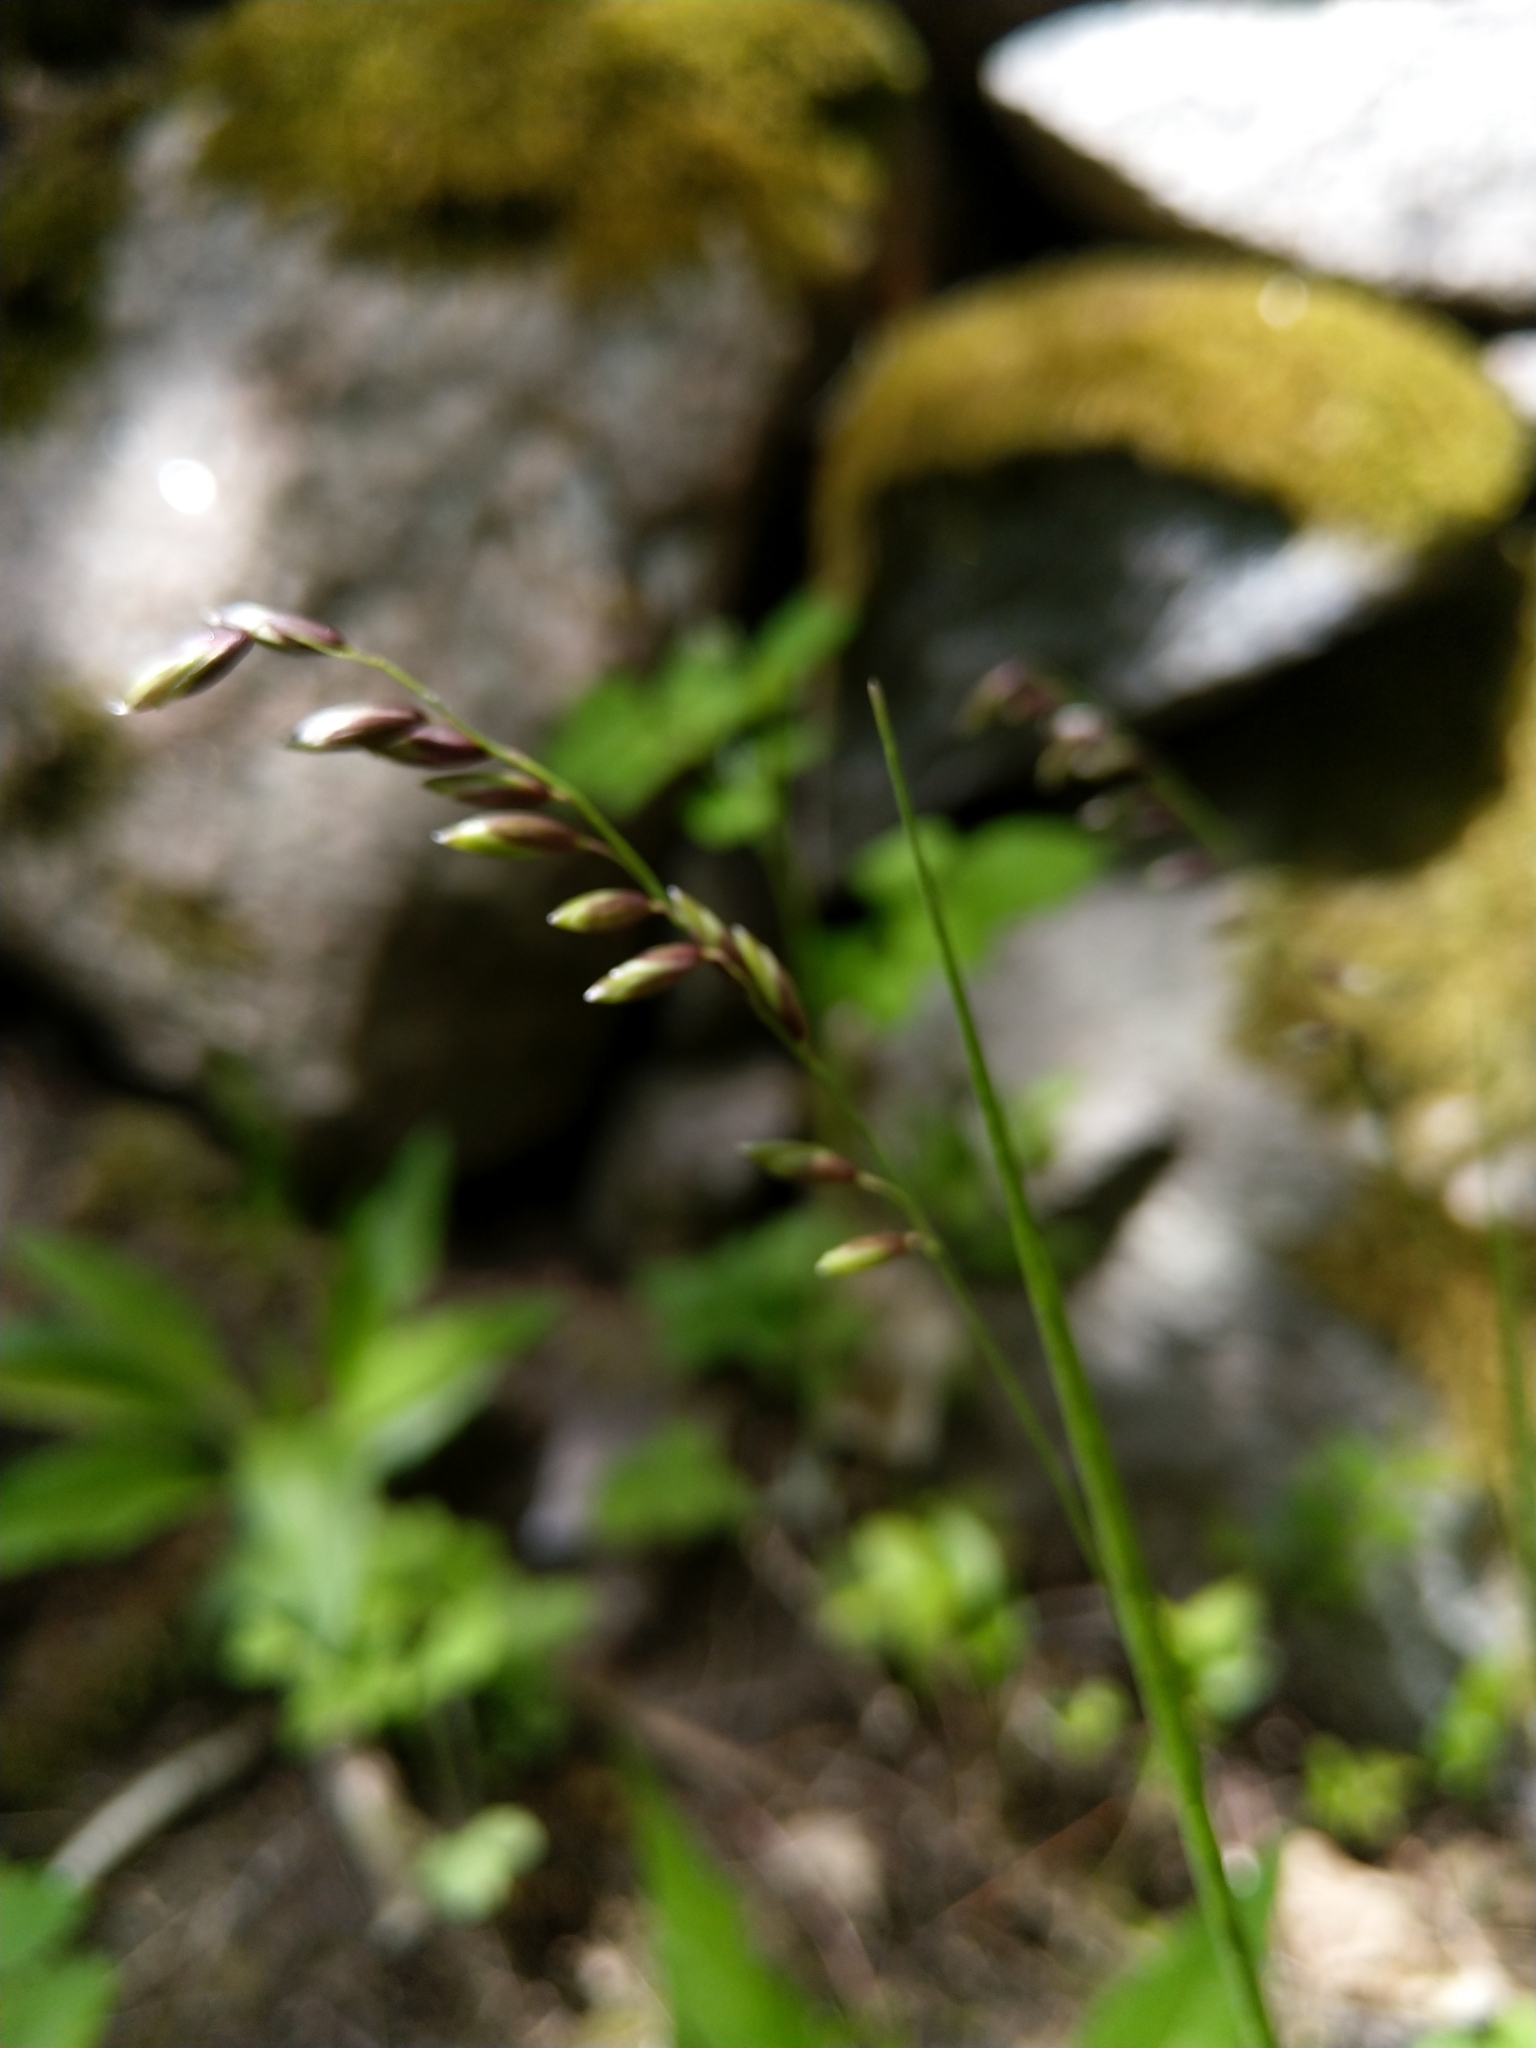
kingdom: Plantae
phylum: Tracheophyta
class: Liliopsida
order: Poales
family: Poaceae
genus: Melica
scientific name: Melica nutans
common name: Mountain melick
